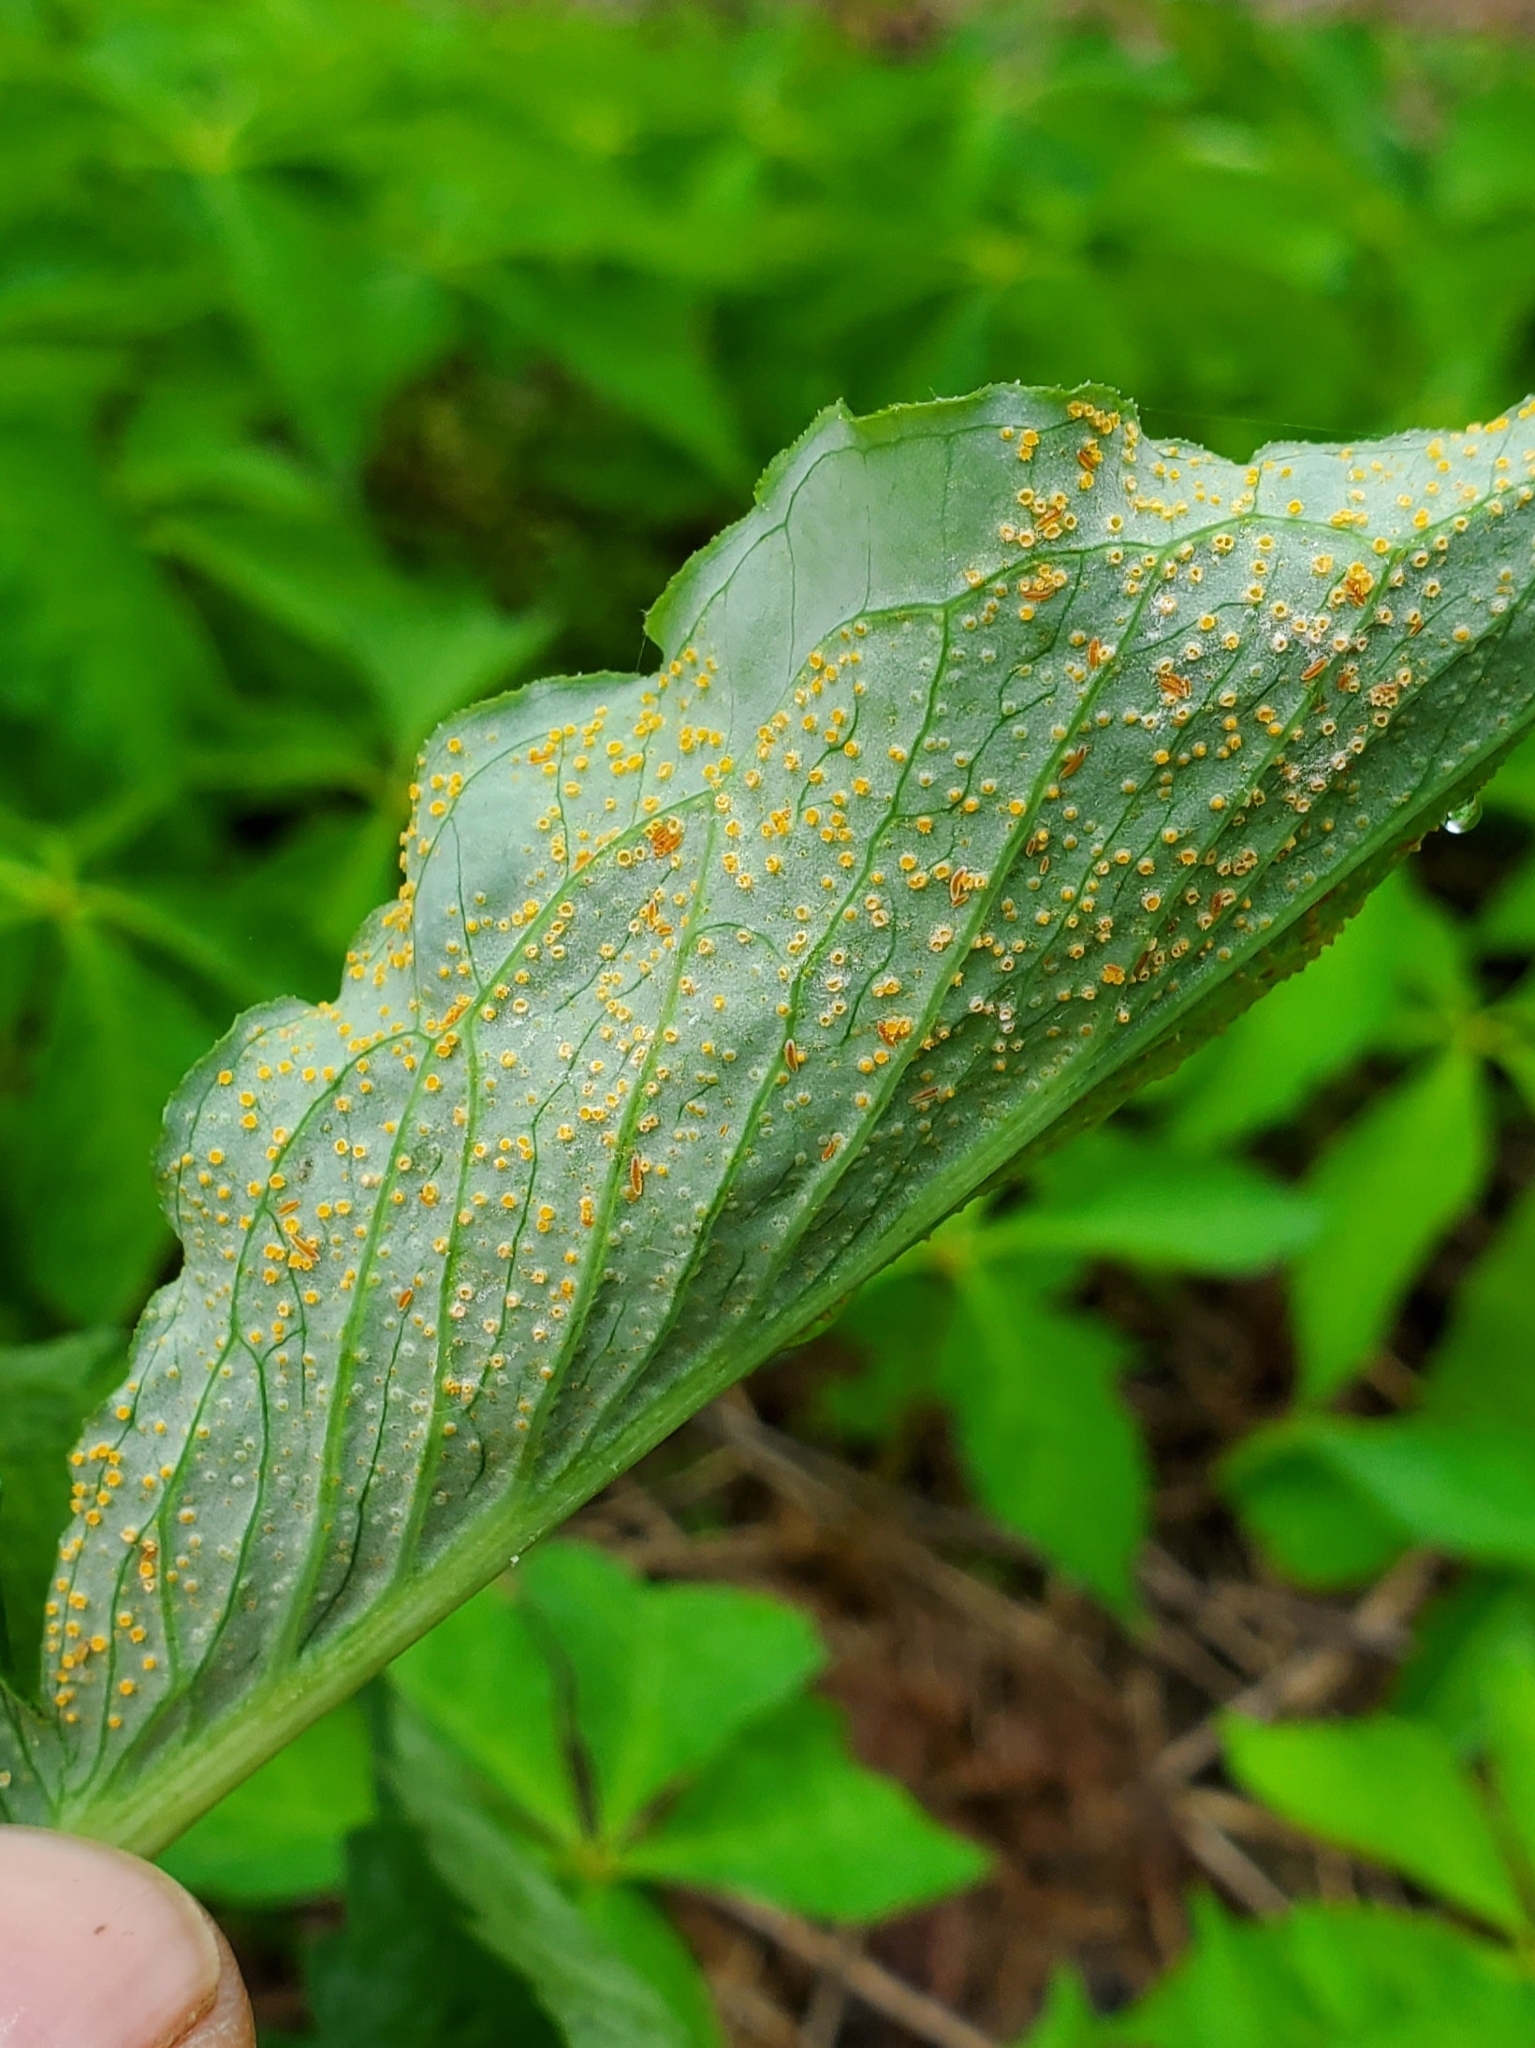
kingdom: Fungi
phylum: Basidiomycota
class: Pucciniomycetes
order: Pucciniales
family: Pucciniaceae
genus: Uromyces
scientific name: Uromyces ari-triphylli
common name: Jack-in-the-pulpit rust
